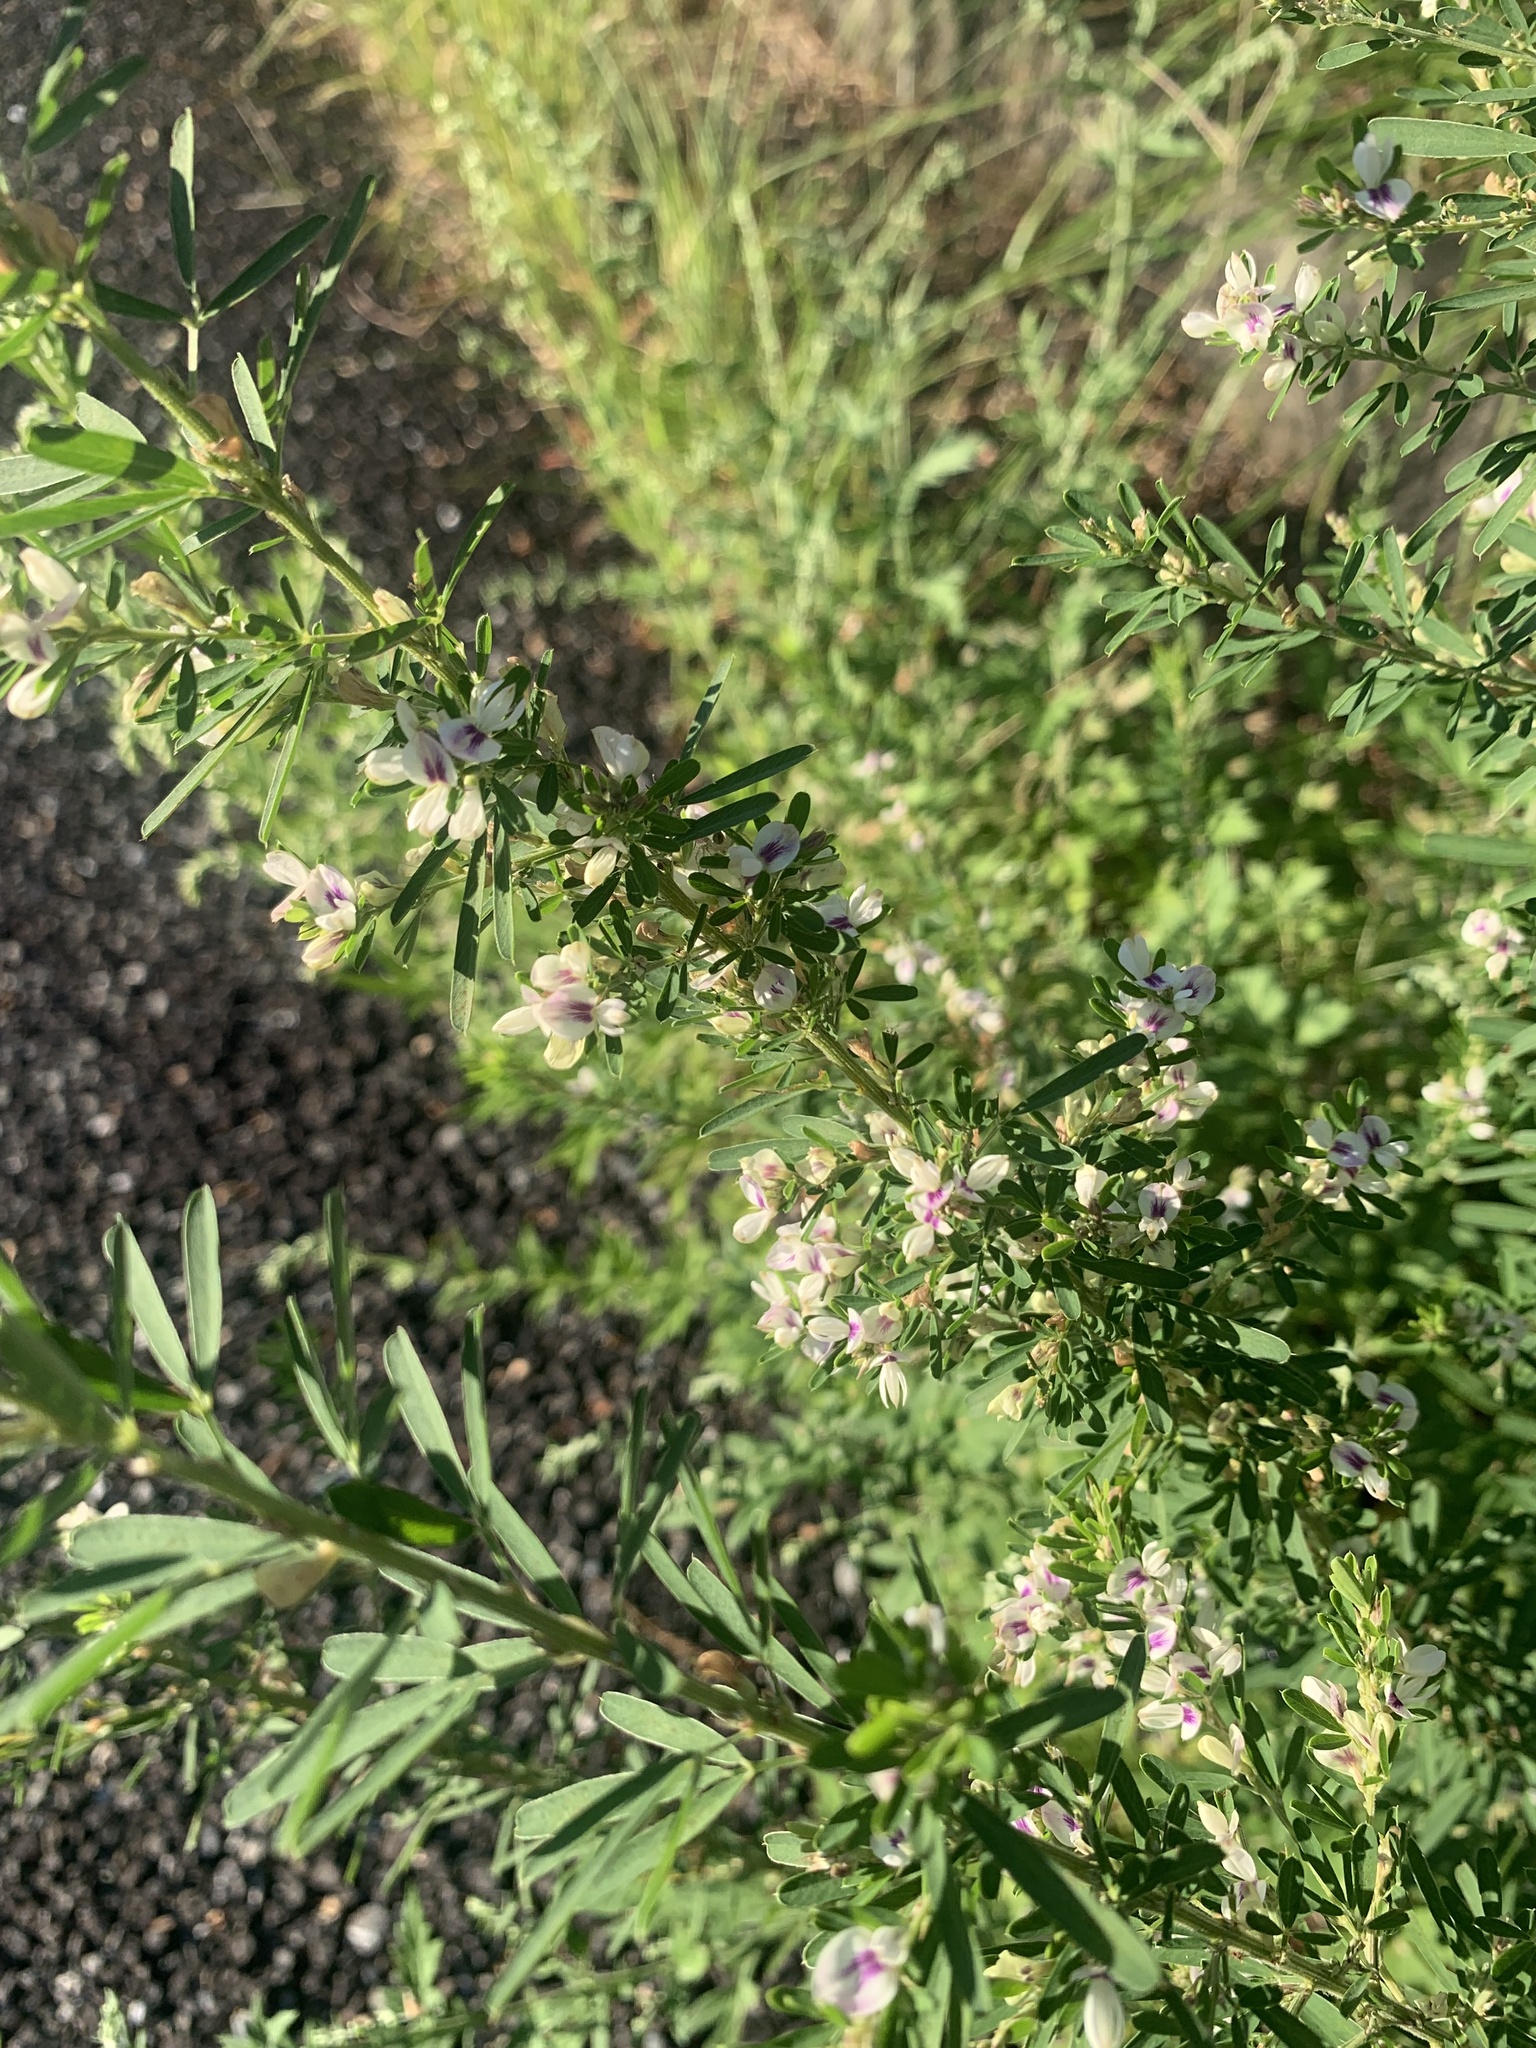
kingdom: Plantae
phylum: Tracheophyta
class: Magnoliopsida
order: Fabales
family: Fabaceae
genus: Lespedeza
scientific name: Lespedeza cuneata
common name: Chinese bush-clover
